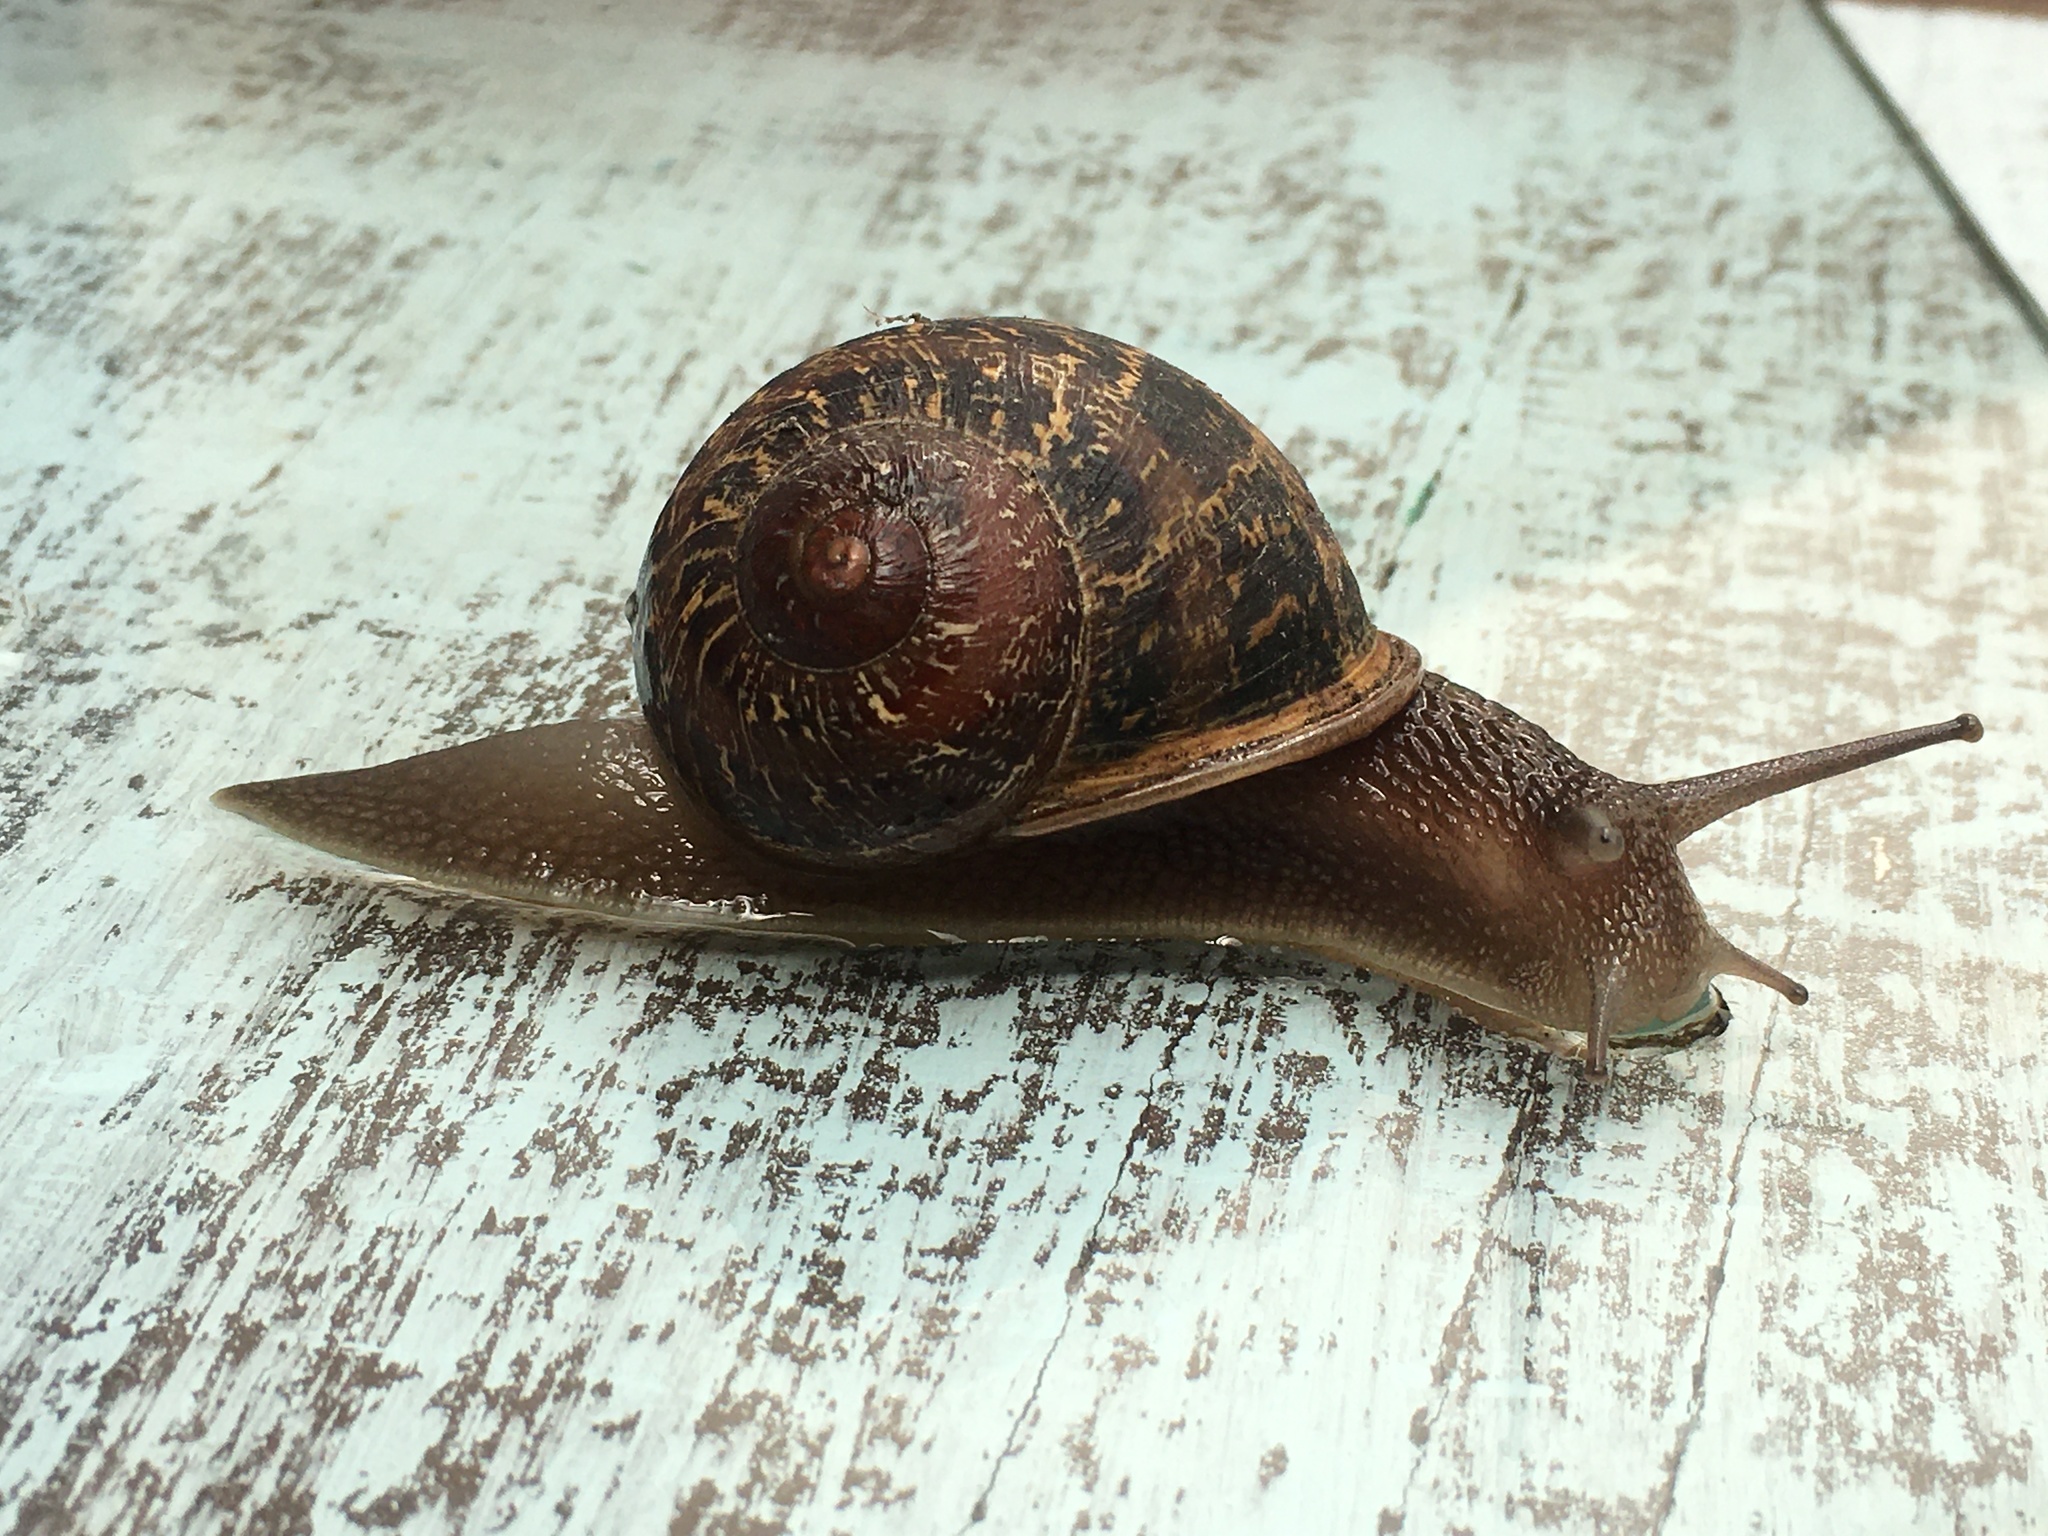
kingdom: Animalia
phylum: Mollusca
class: Gastropoda
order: Stylommatophora
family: Helicidae
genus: Cornu
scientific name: Cornu aspersum
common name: Brown garden snail
